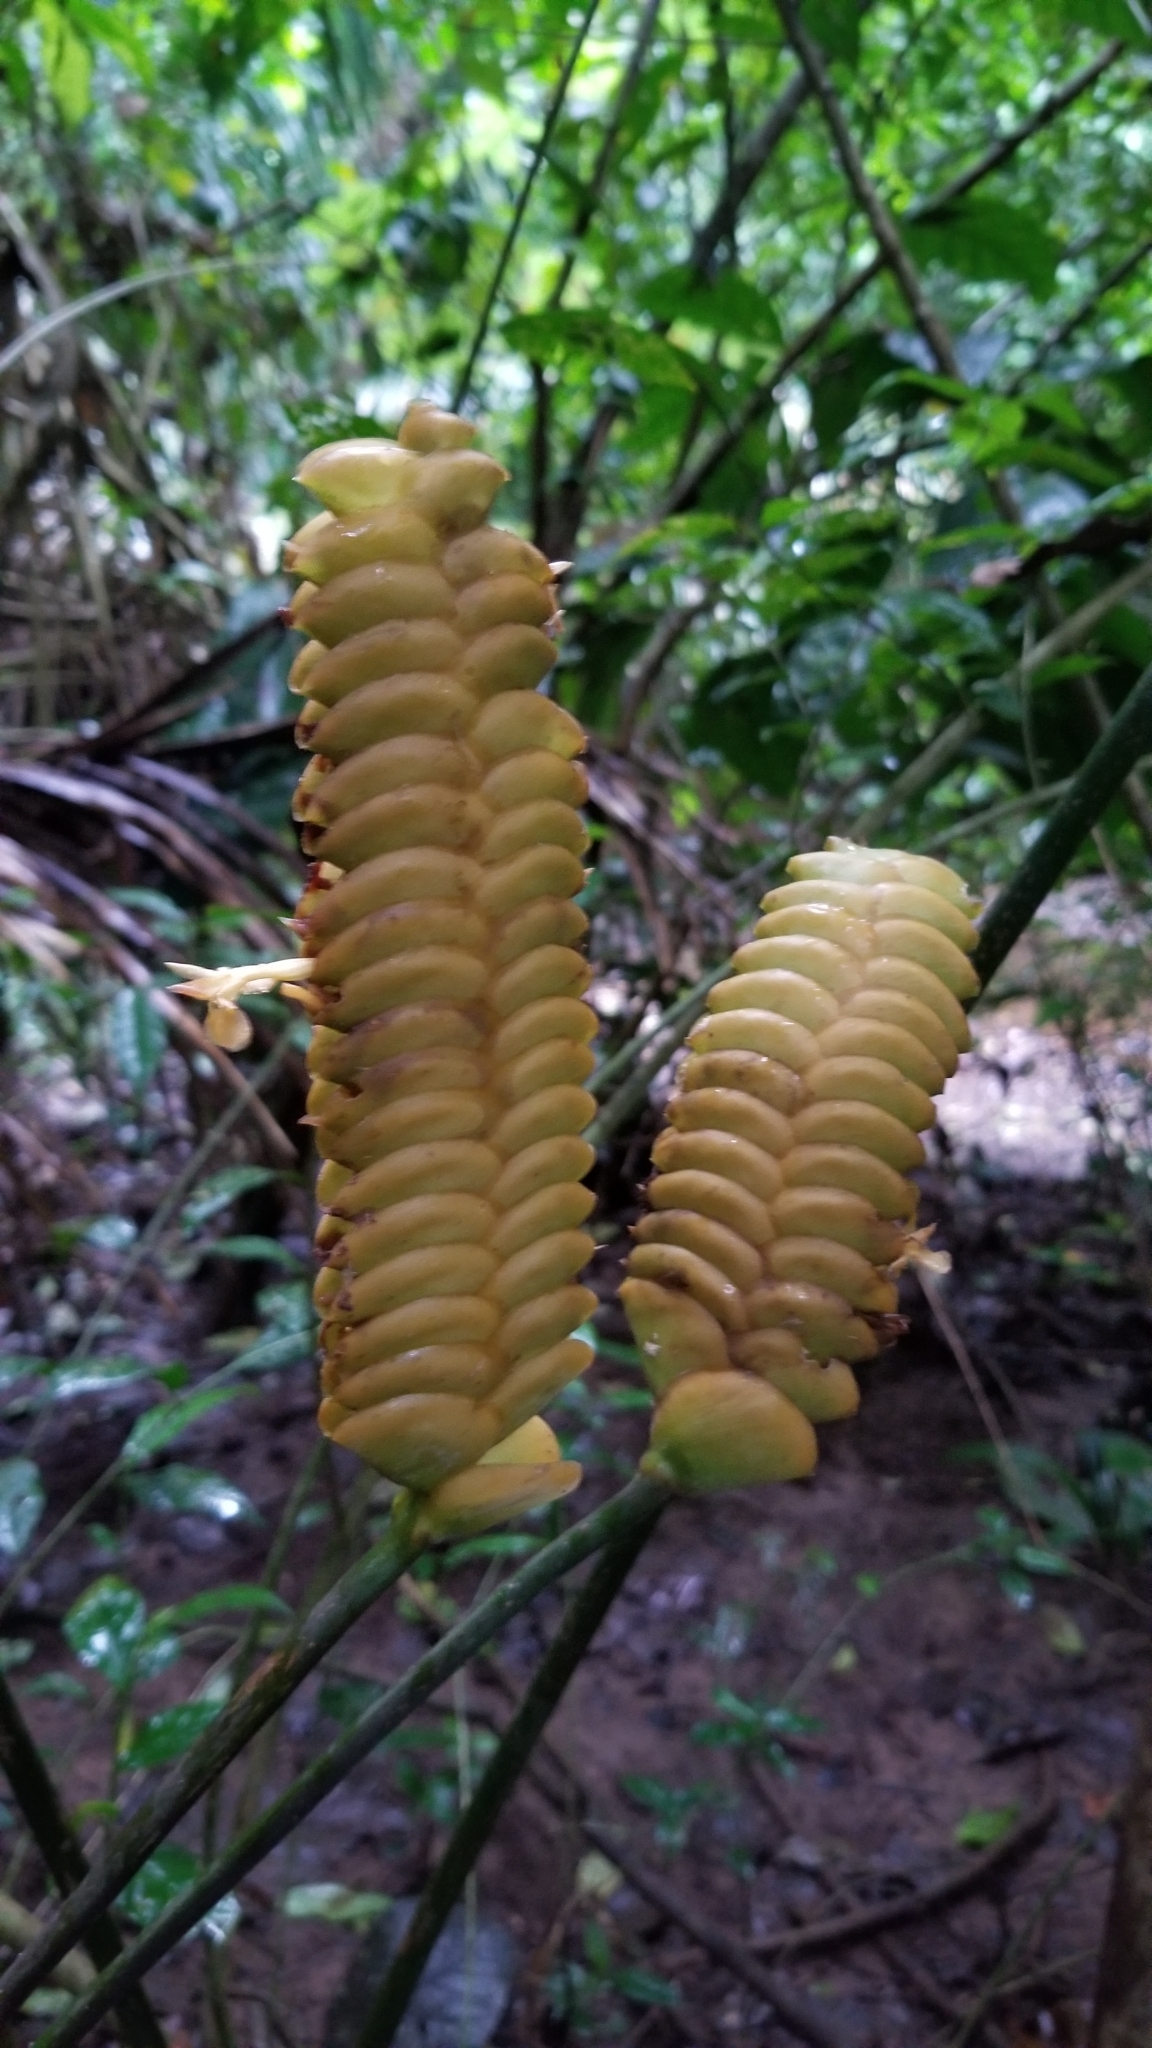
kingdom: Plantae
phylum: Tracheophyta
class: Liliopsida
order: Zingiberales
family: Marantaceae
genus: Calathea
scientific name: Calathea crotalifera
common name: Rattlesnake plant
